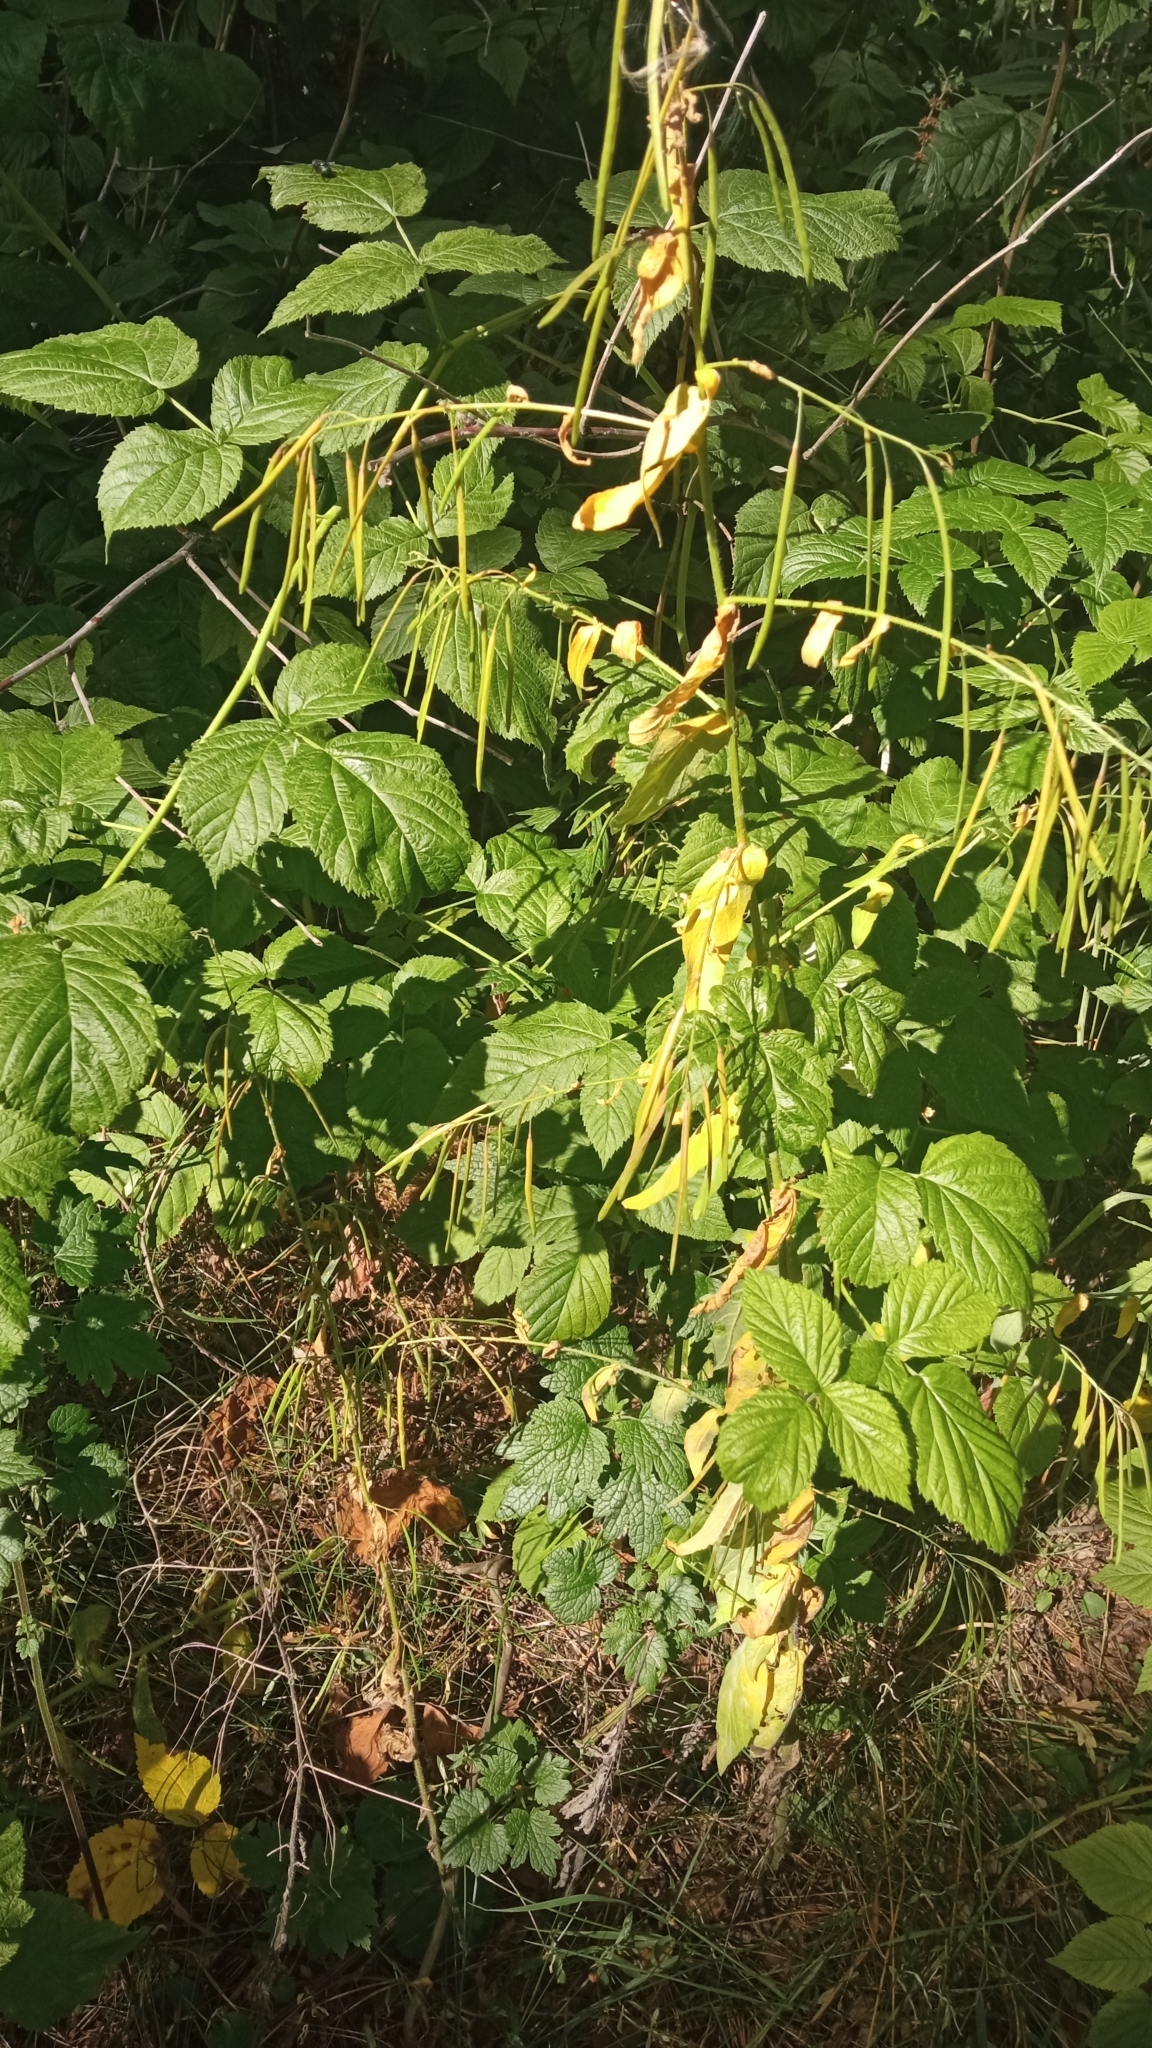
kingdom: Plantae
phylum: Tracheophyta
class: Magnoliopsida
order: Brassicales
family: Brassicaceae
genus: Catolobus
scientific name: Catolobus pendulus
